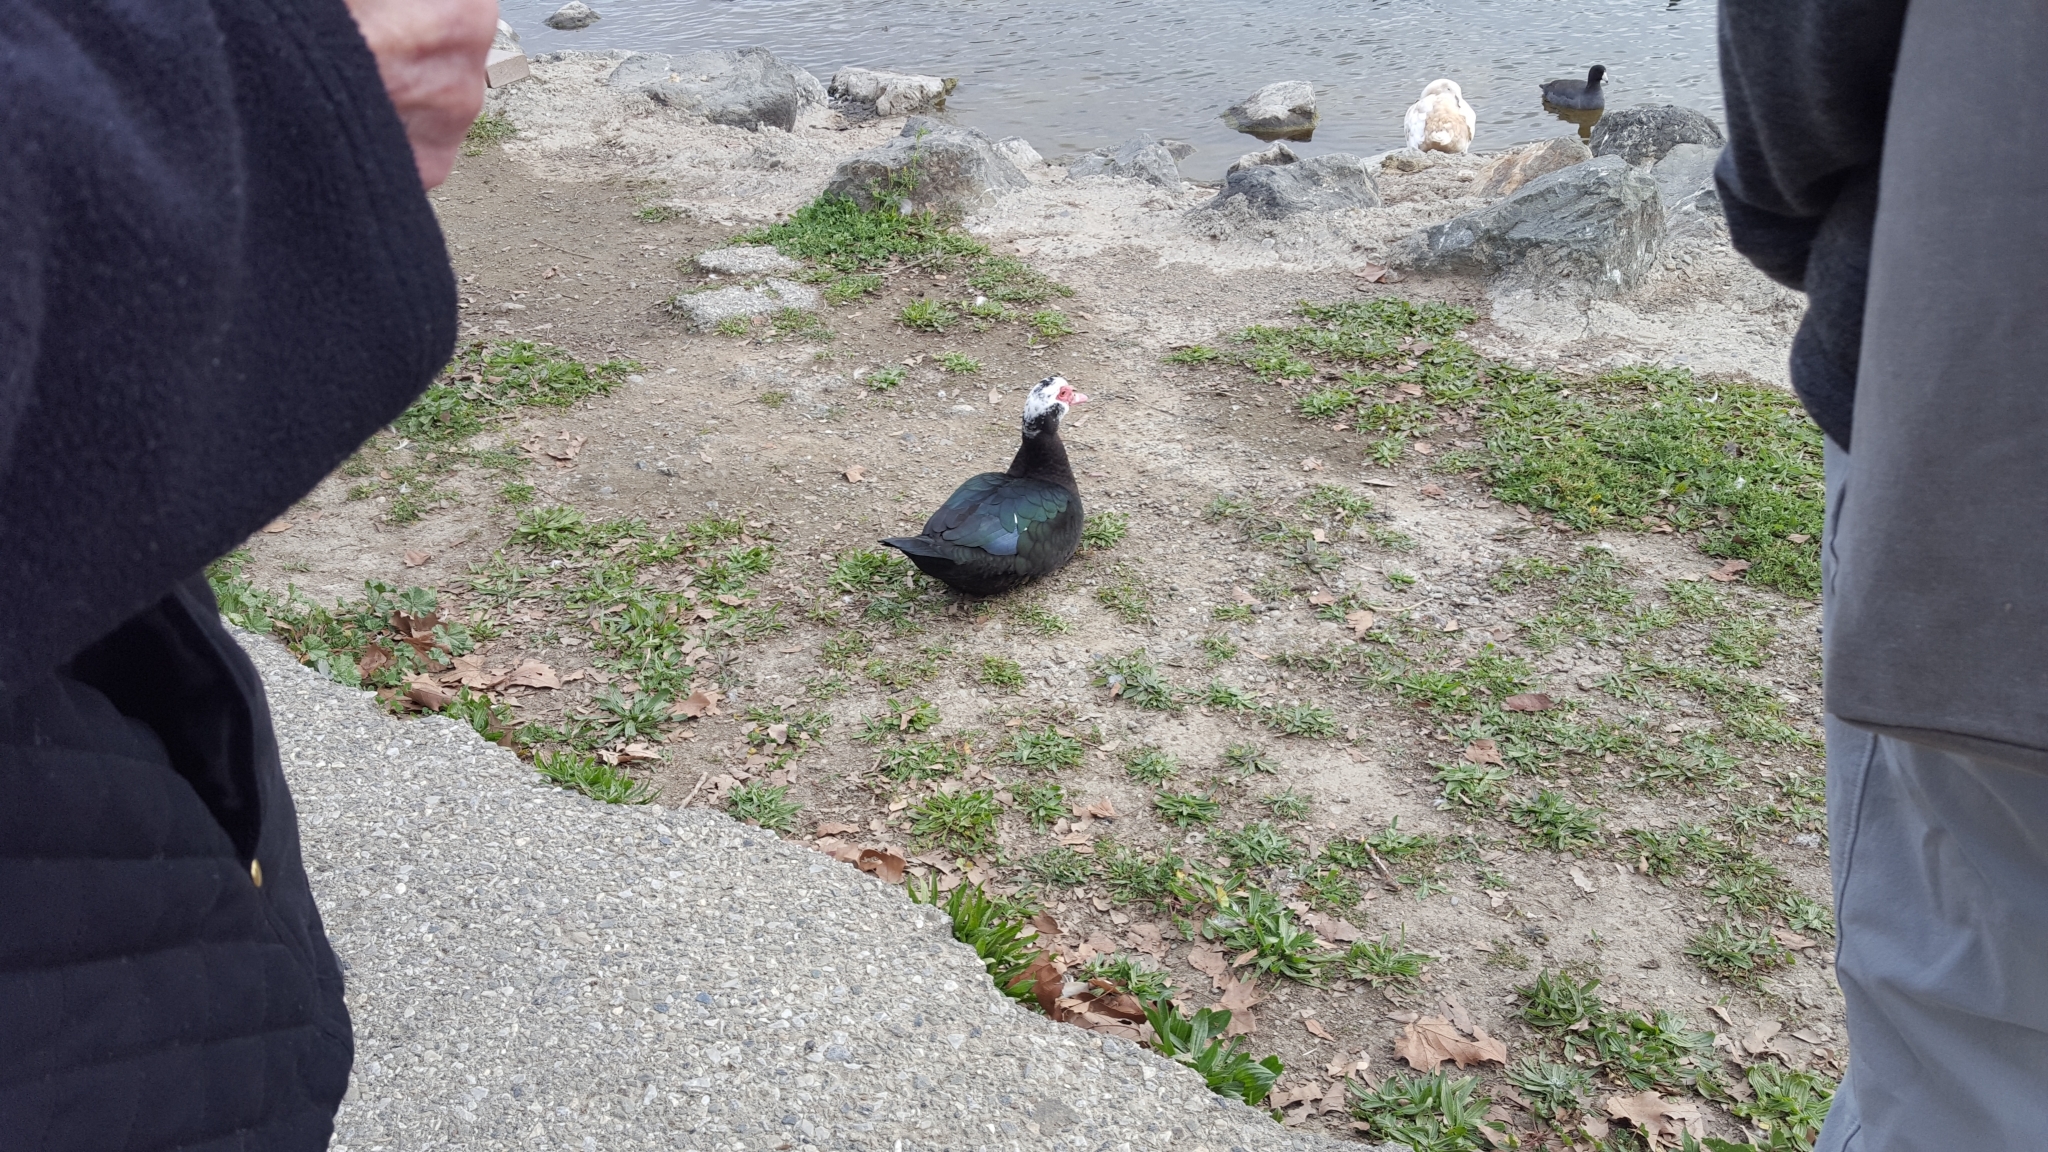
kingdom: Animalia
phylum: Chordata
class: Aves
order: Anseriformes
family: Anatidae
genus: Cairina
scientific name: Cairina moschata
